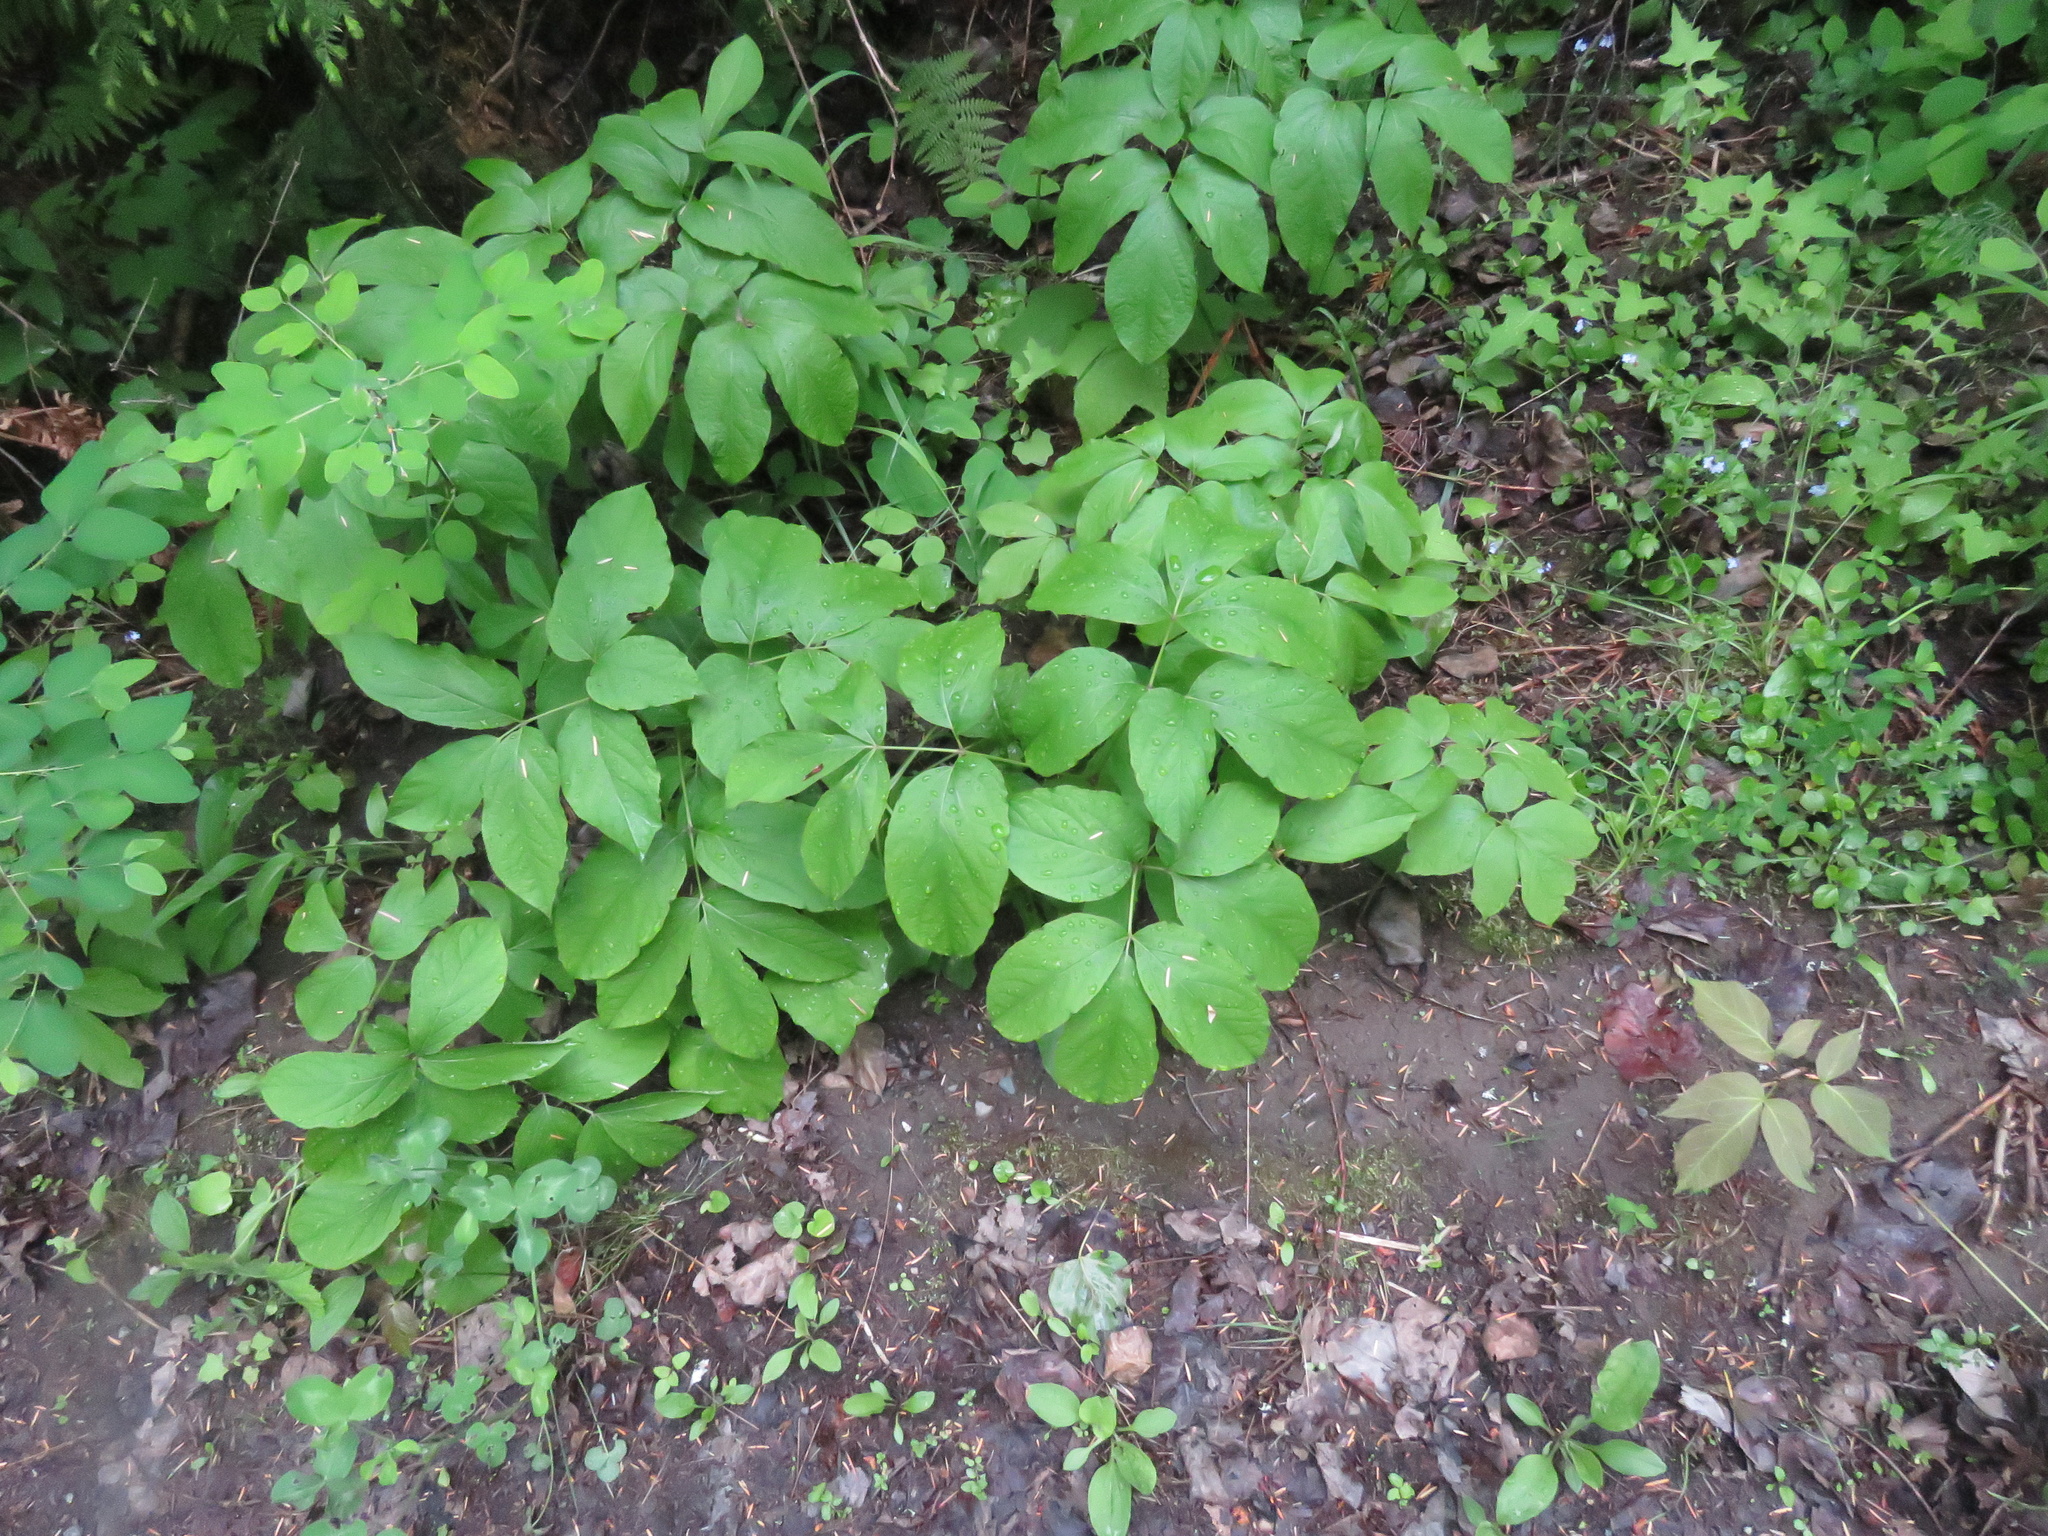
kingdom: Plantae
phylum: Tracheophyta
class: Magnoliopsida
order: Apiales
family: Araliaceae
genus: Aralia
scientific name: Aralia nudicaulis
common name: Wild sarsaparilla
